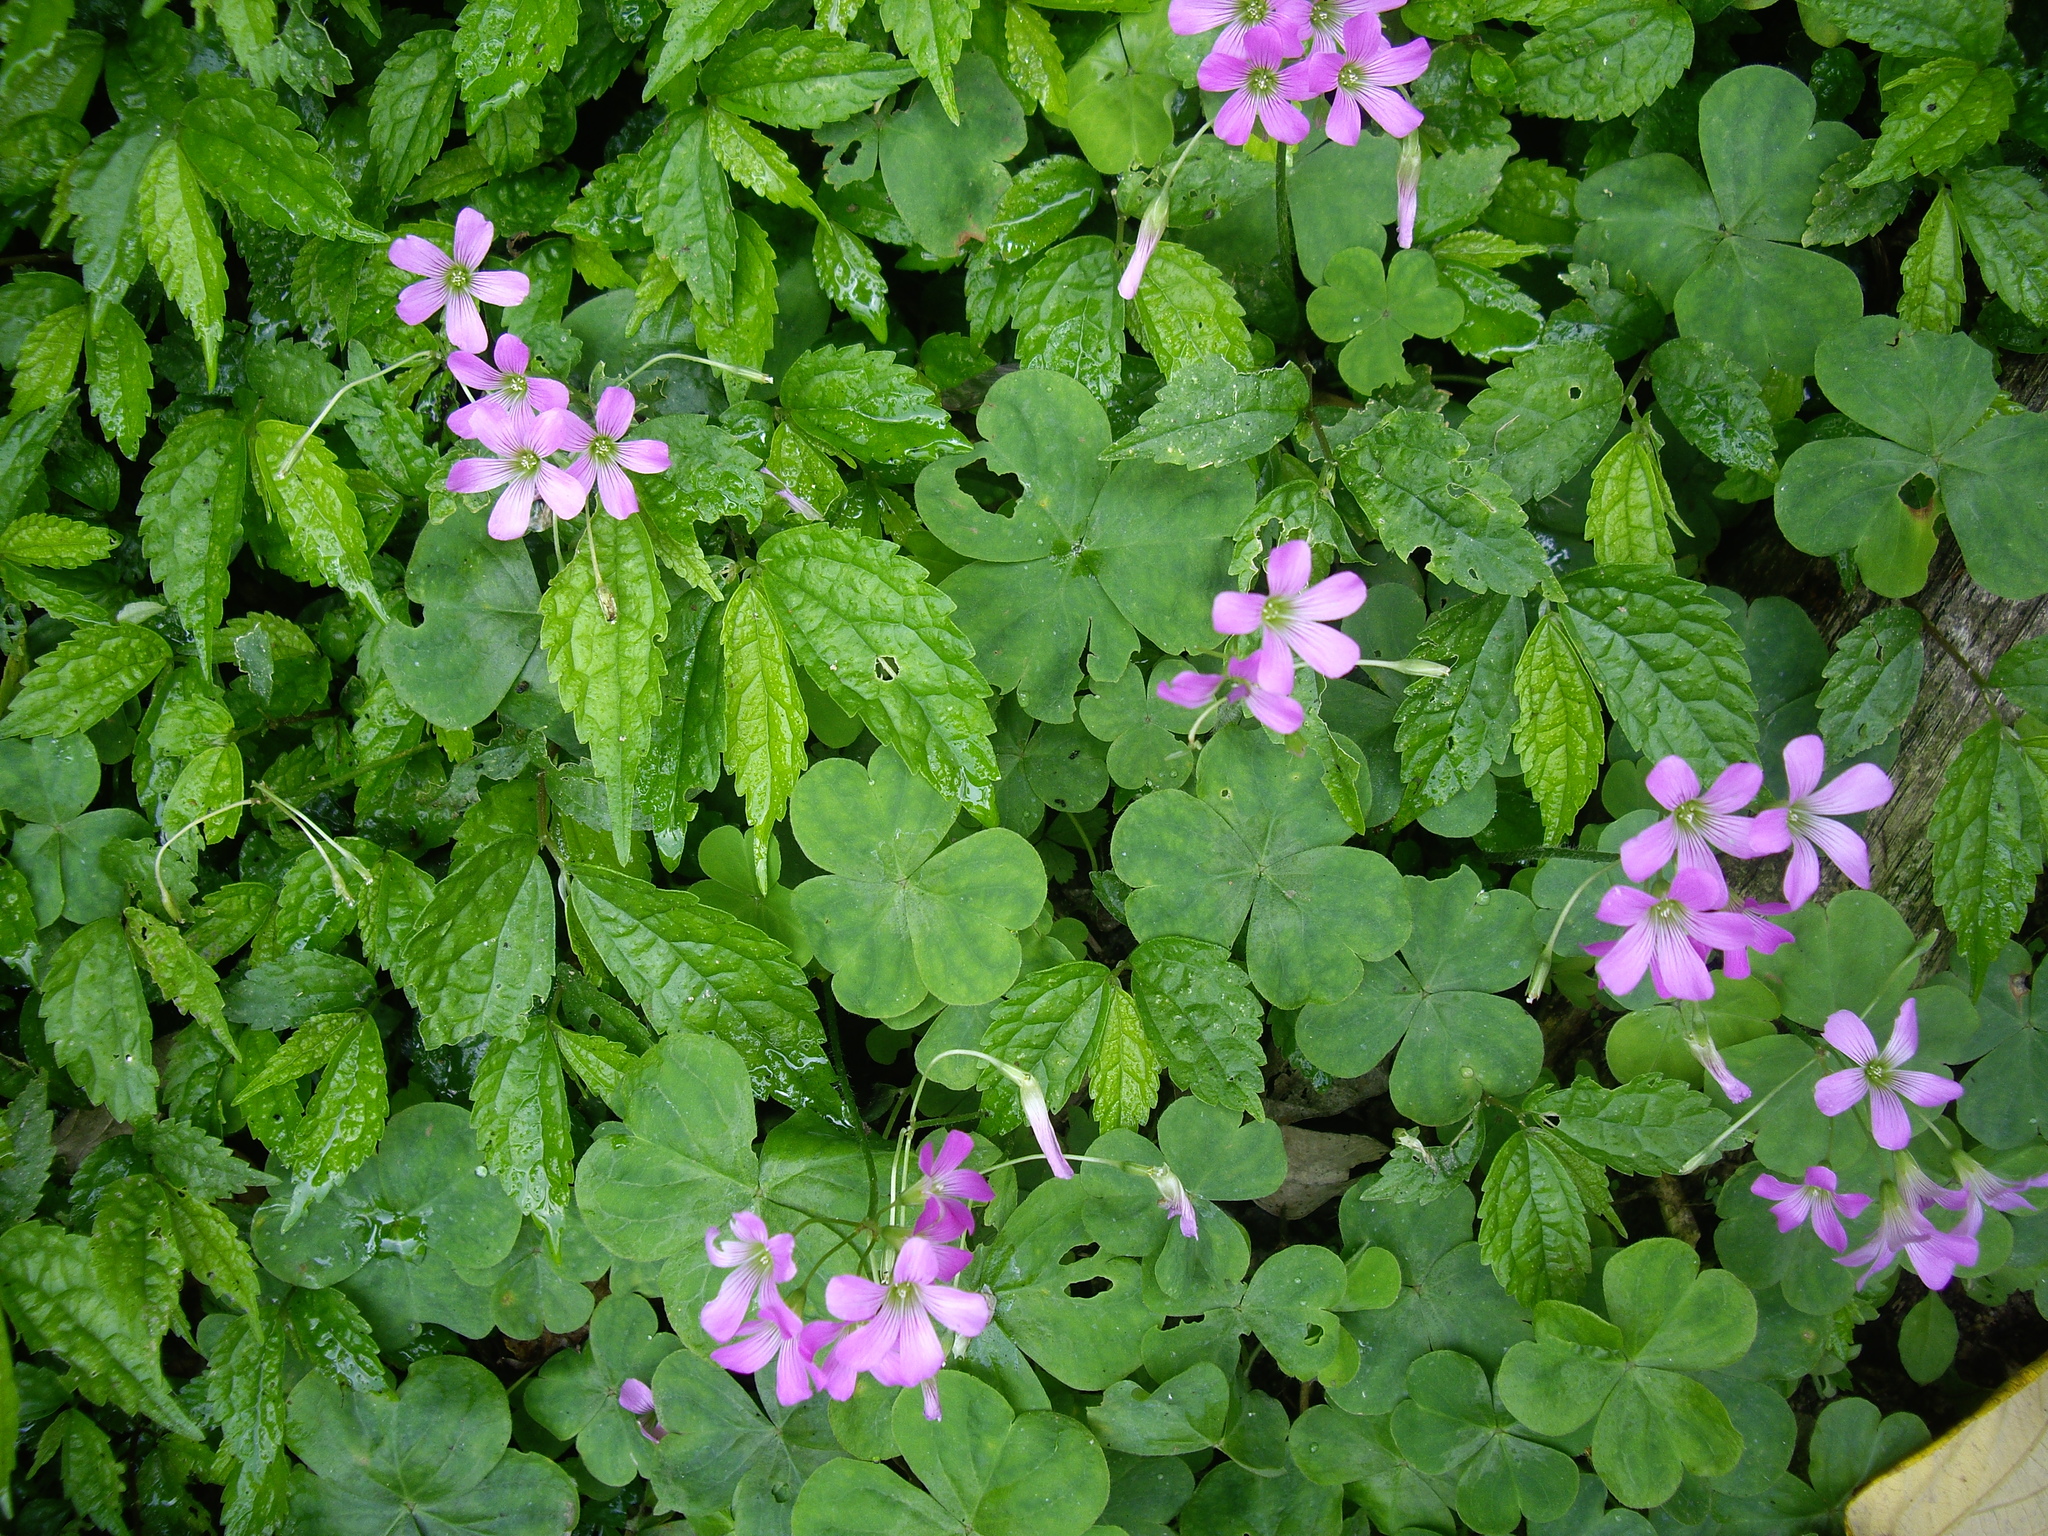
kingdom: Plantae
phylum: Tracheophyta
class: Magnoliopsida
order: Oxalidales
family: Oxalidaceae
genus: Oxalis
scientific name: Oxalis debilis
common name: Large-flowered pink-sorrel
